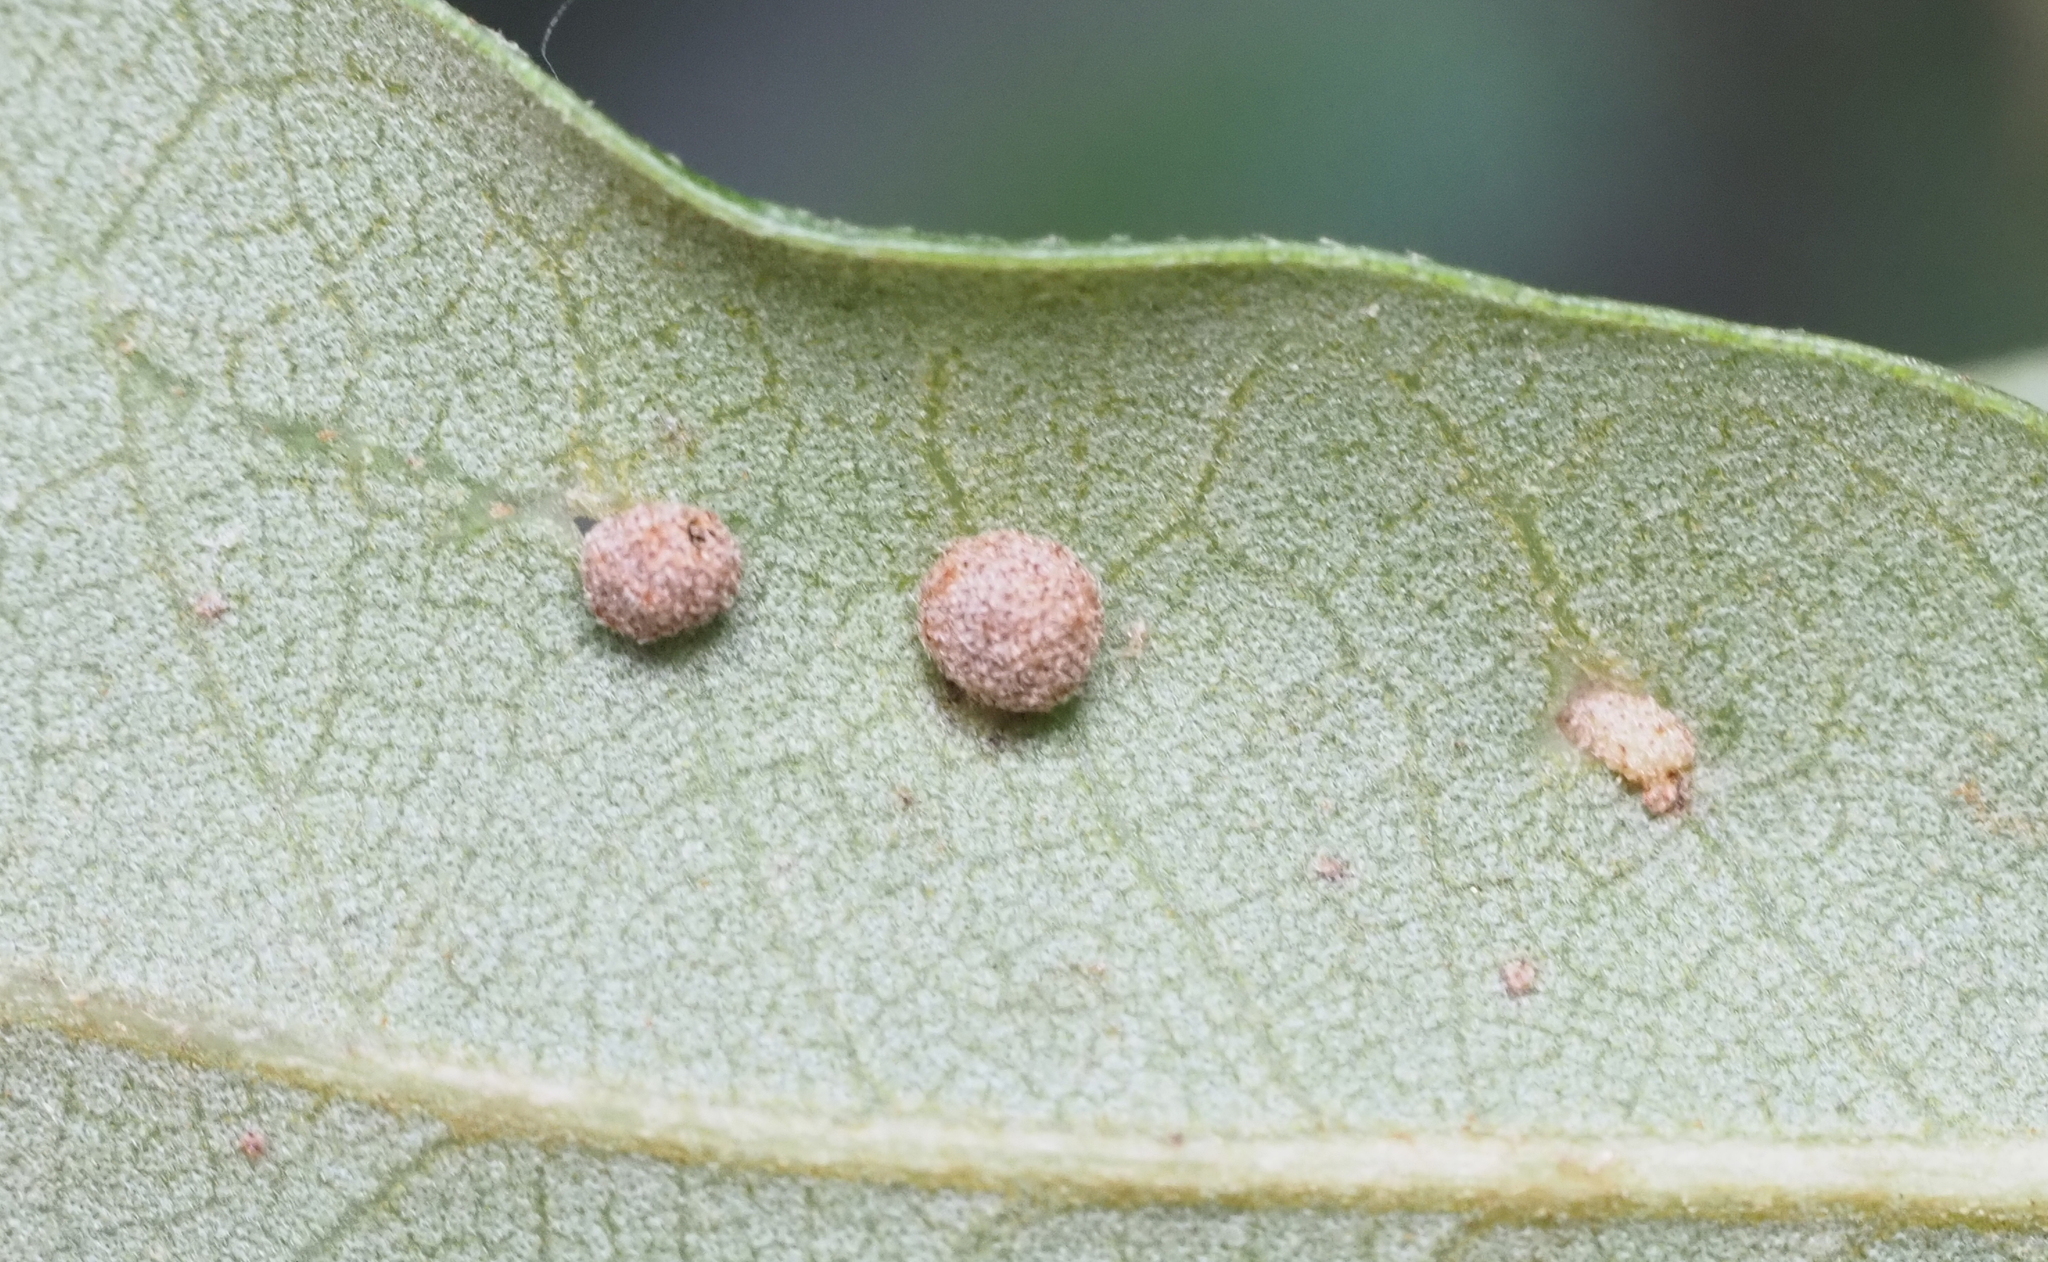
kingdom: Animalia
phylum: Arthropoda
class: Insecta
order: Hymenoptera
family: Cynipidae
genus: Belonocnema
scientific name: Belonocnema kinseyi
